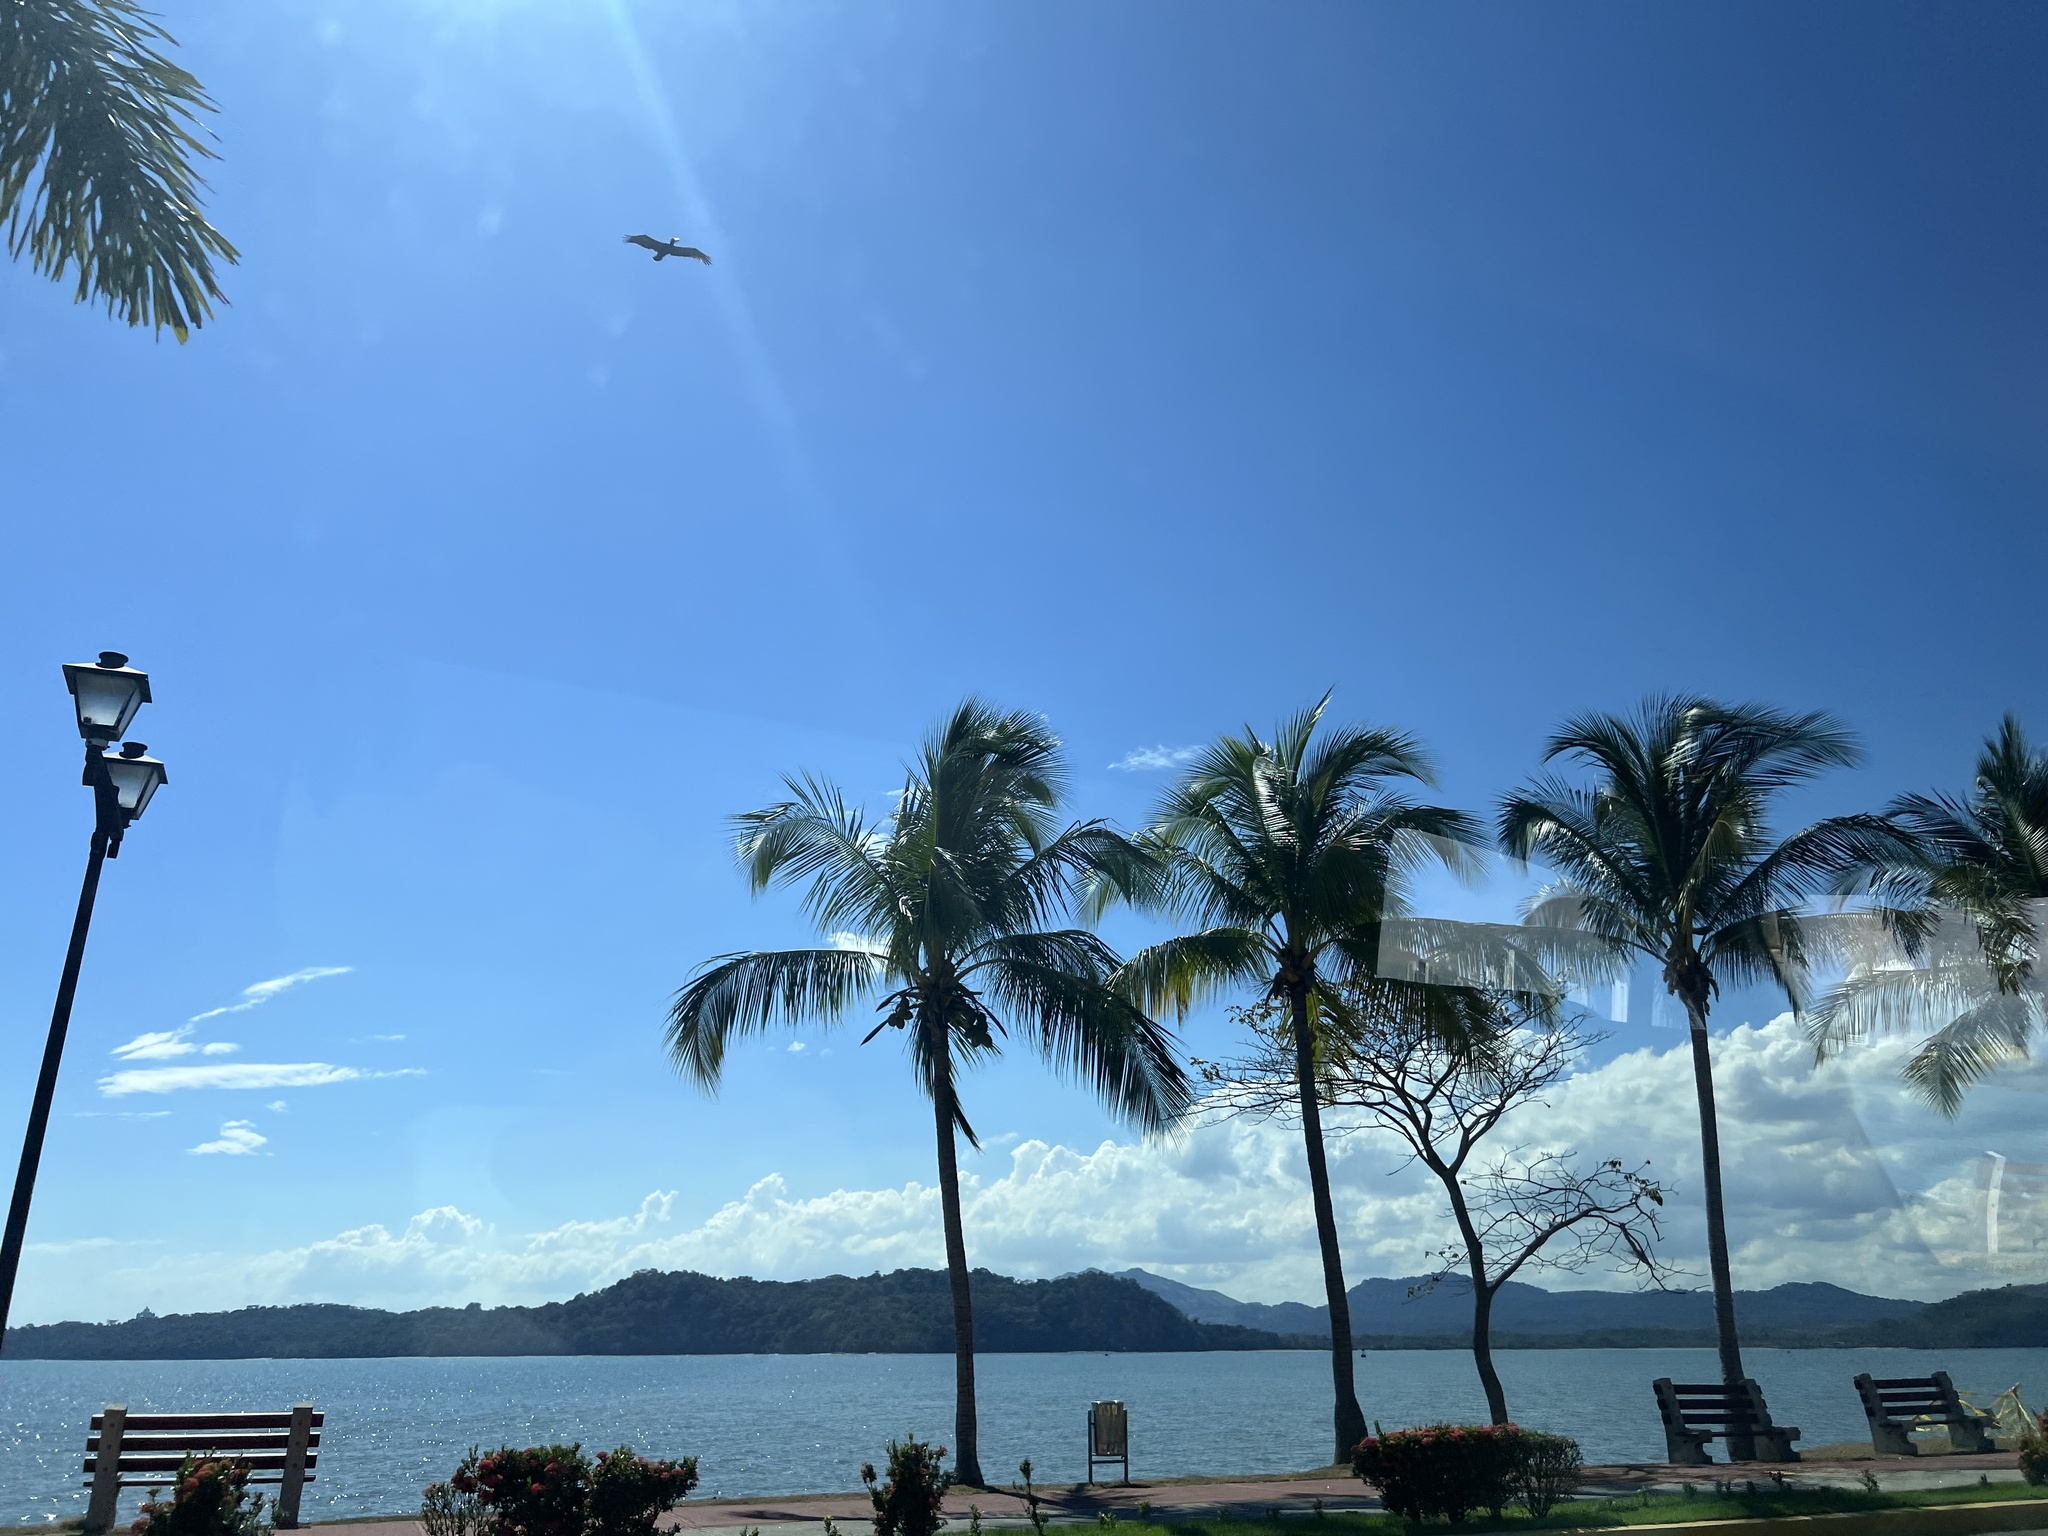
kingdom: Animalia
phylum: Chordata
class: Aves
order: Pelecaniformes
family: Pelecanidae
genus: Pelecanus
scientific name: Pelecanus occidentalis
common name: Brown pelican
